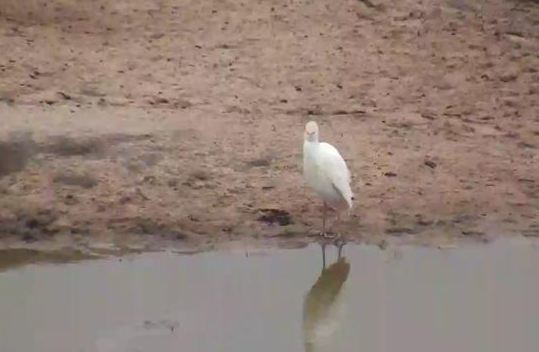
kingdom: Animalia
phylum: Chordata
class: Aves
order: Pelecaniformes
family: Ardeidae
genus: Bubulcus
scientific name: Bubulcus ibis
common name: Cattle egret
